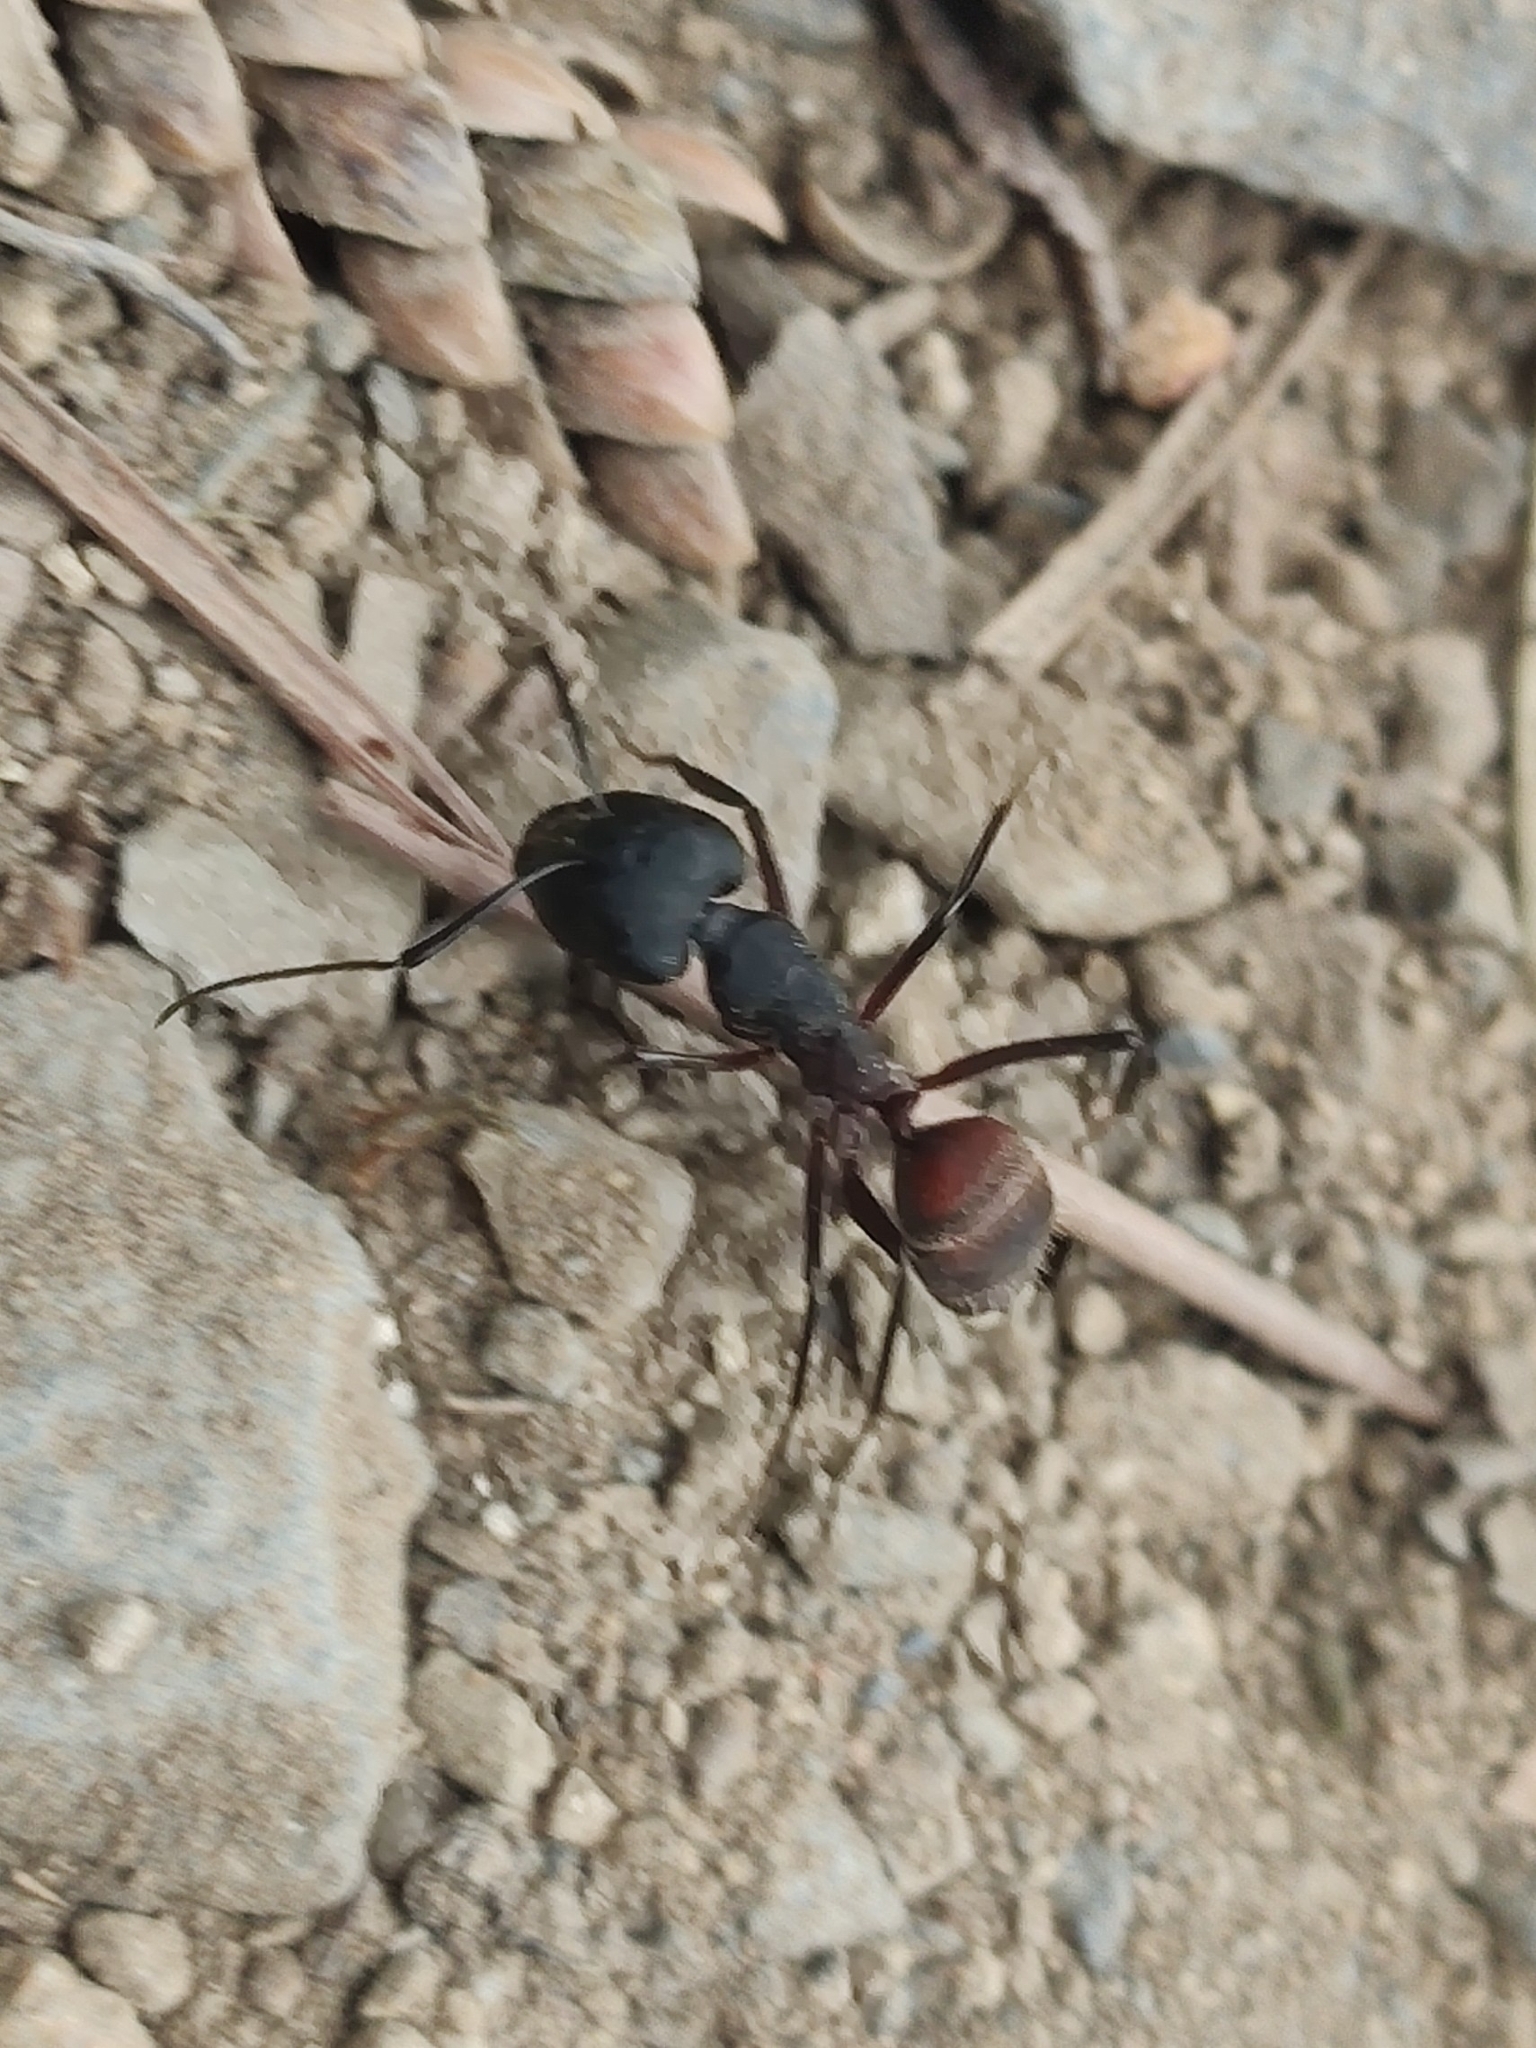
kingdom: Animalia
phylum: Arthropoda
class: Insecta
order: Hymenoptera
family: Formicidae
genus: Camponotus
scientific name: Camponotus cruentatus
